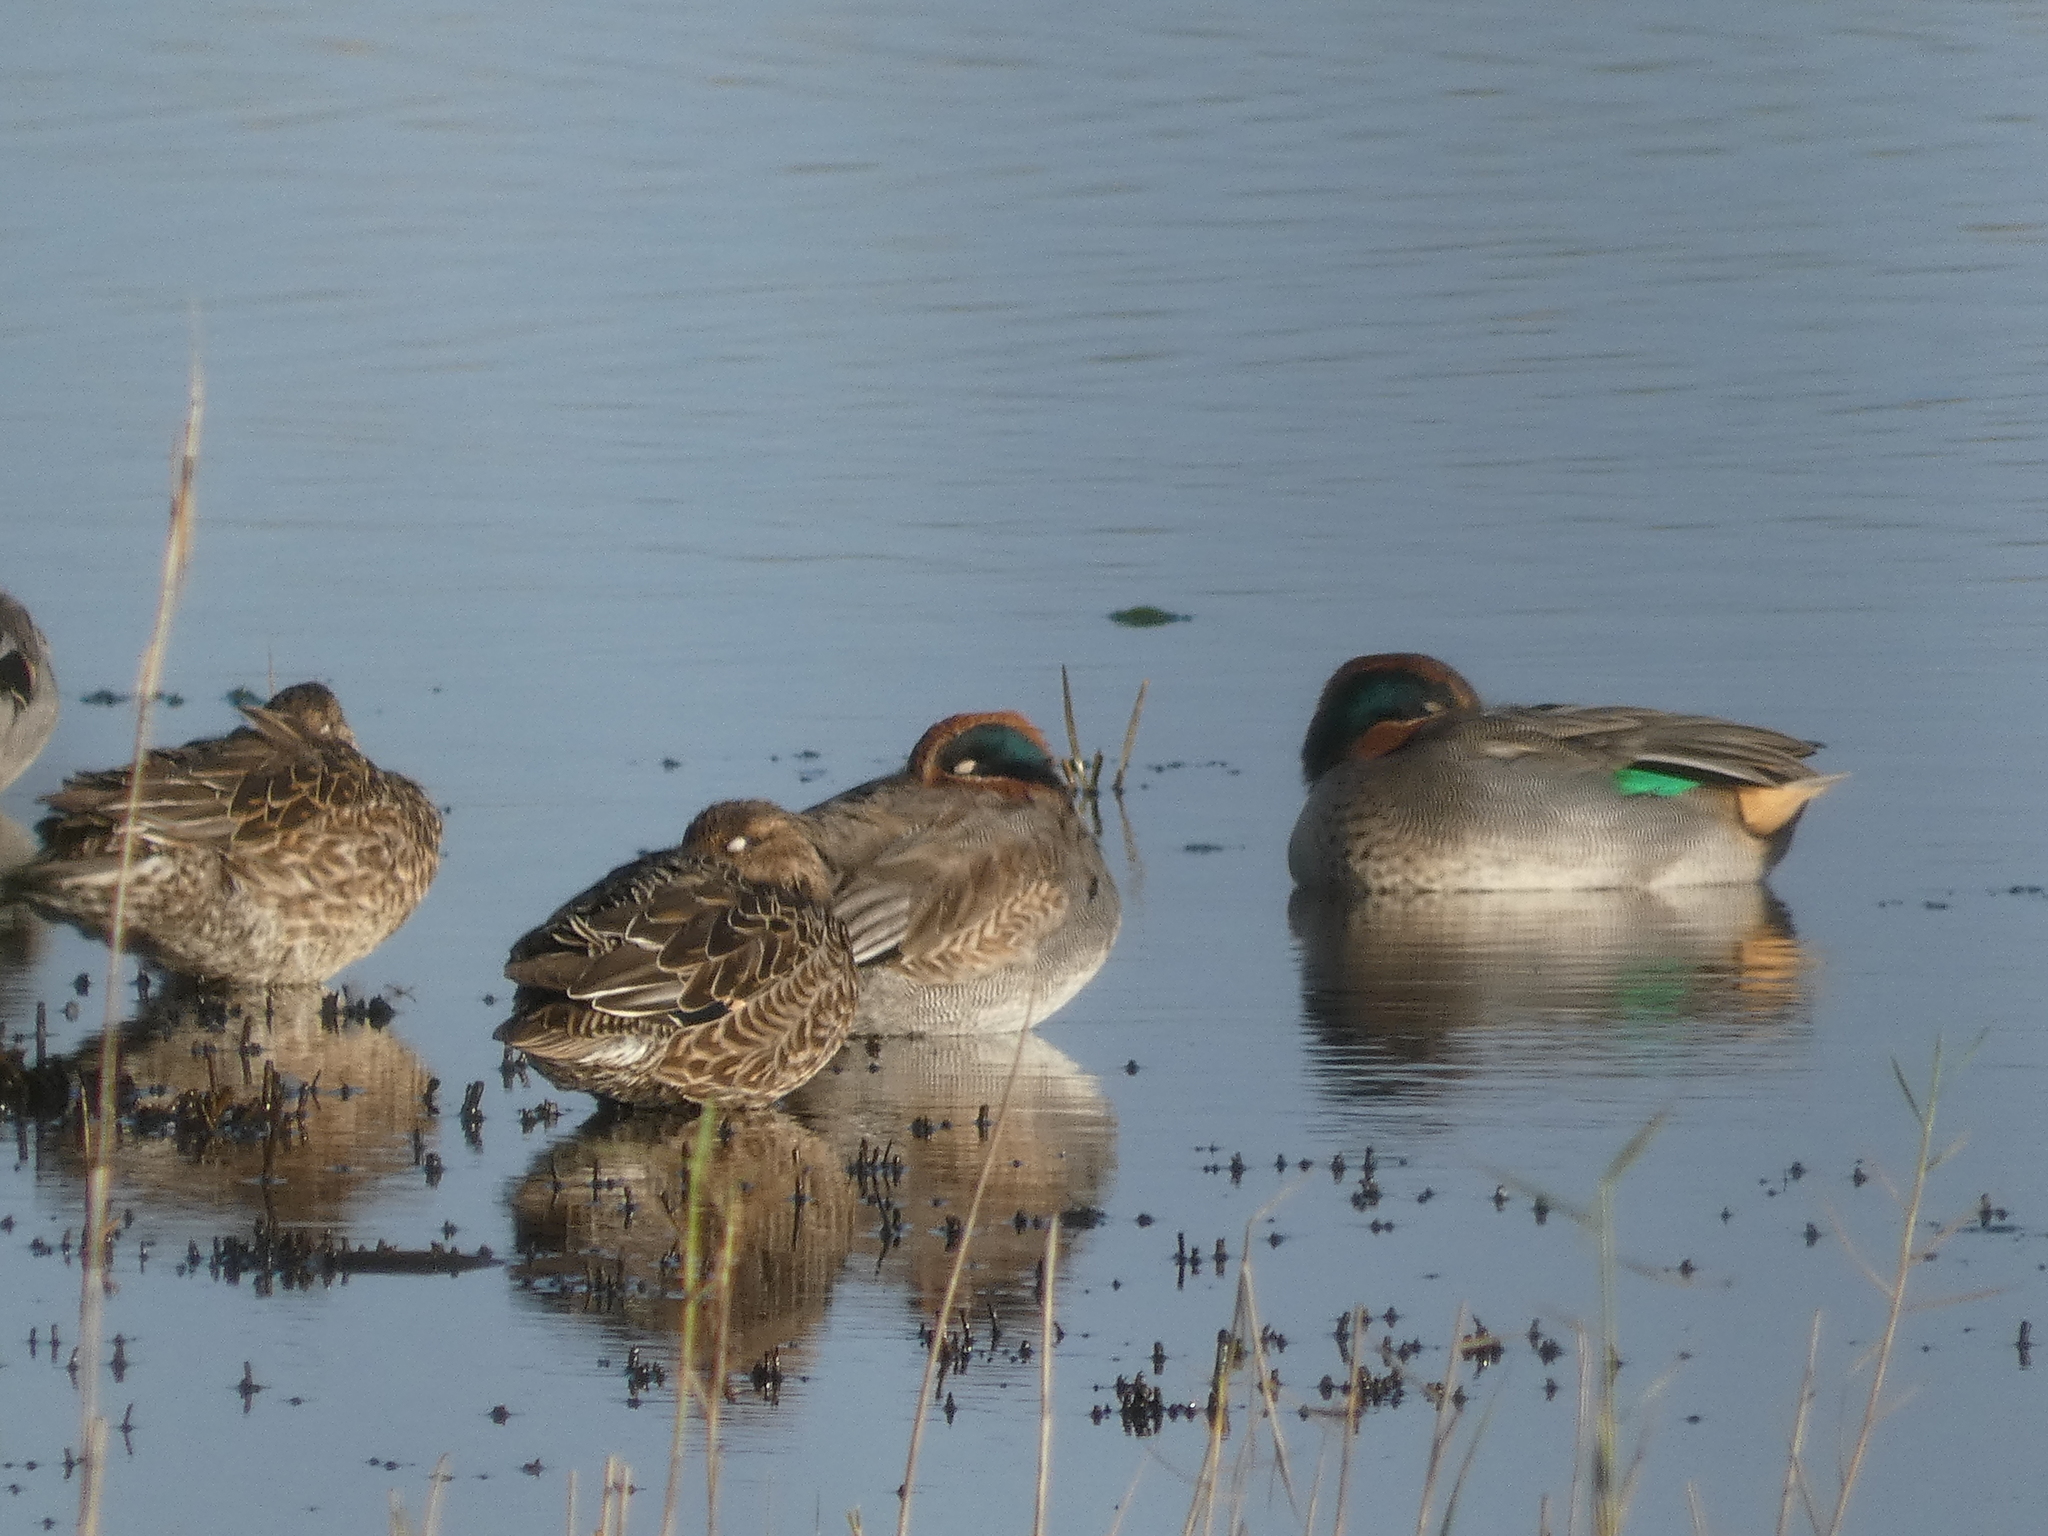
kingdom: Animalia
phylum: Chordata
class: Aves
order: Anseriformes
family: Anatidae
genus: Anas
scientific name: Anas crecca
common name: Eurasian teal
